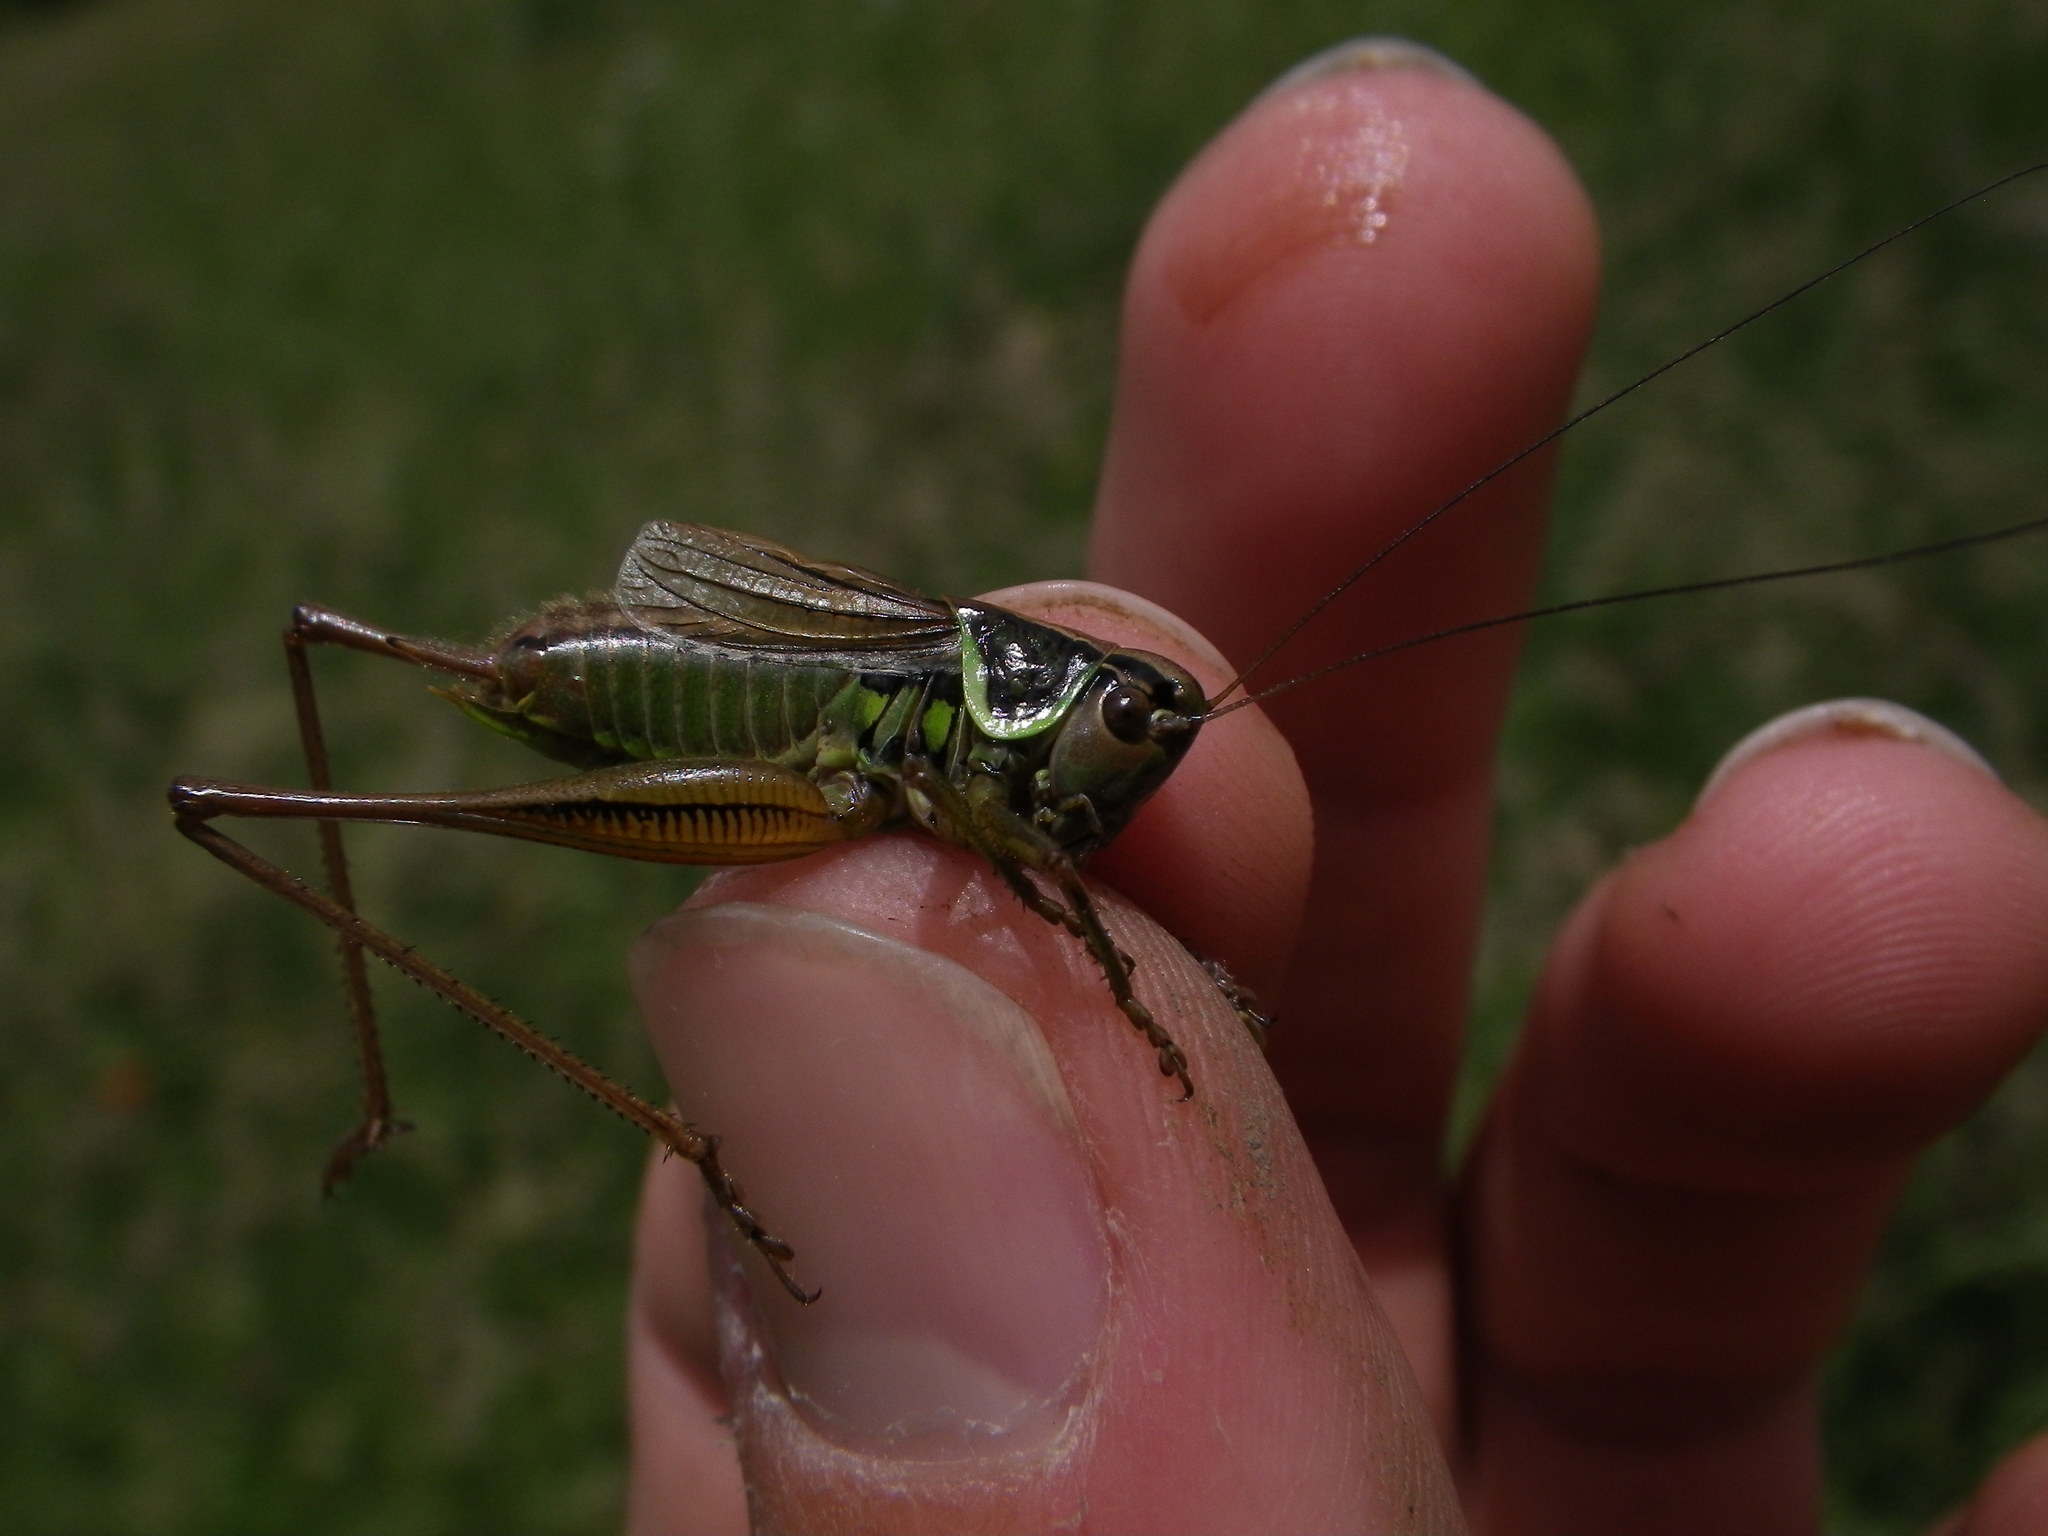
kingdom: Animalia
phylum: Arthropoda
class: Insecta
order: Orthoptera
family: Tettigoniidae
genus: Roeseliana
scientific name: Roeseliana roeselii
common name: Roesel's bush cricket
